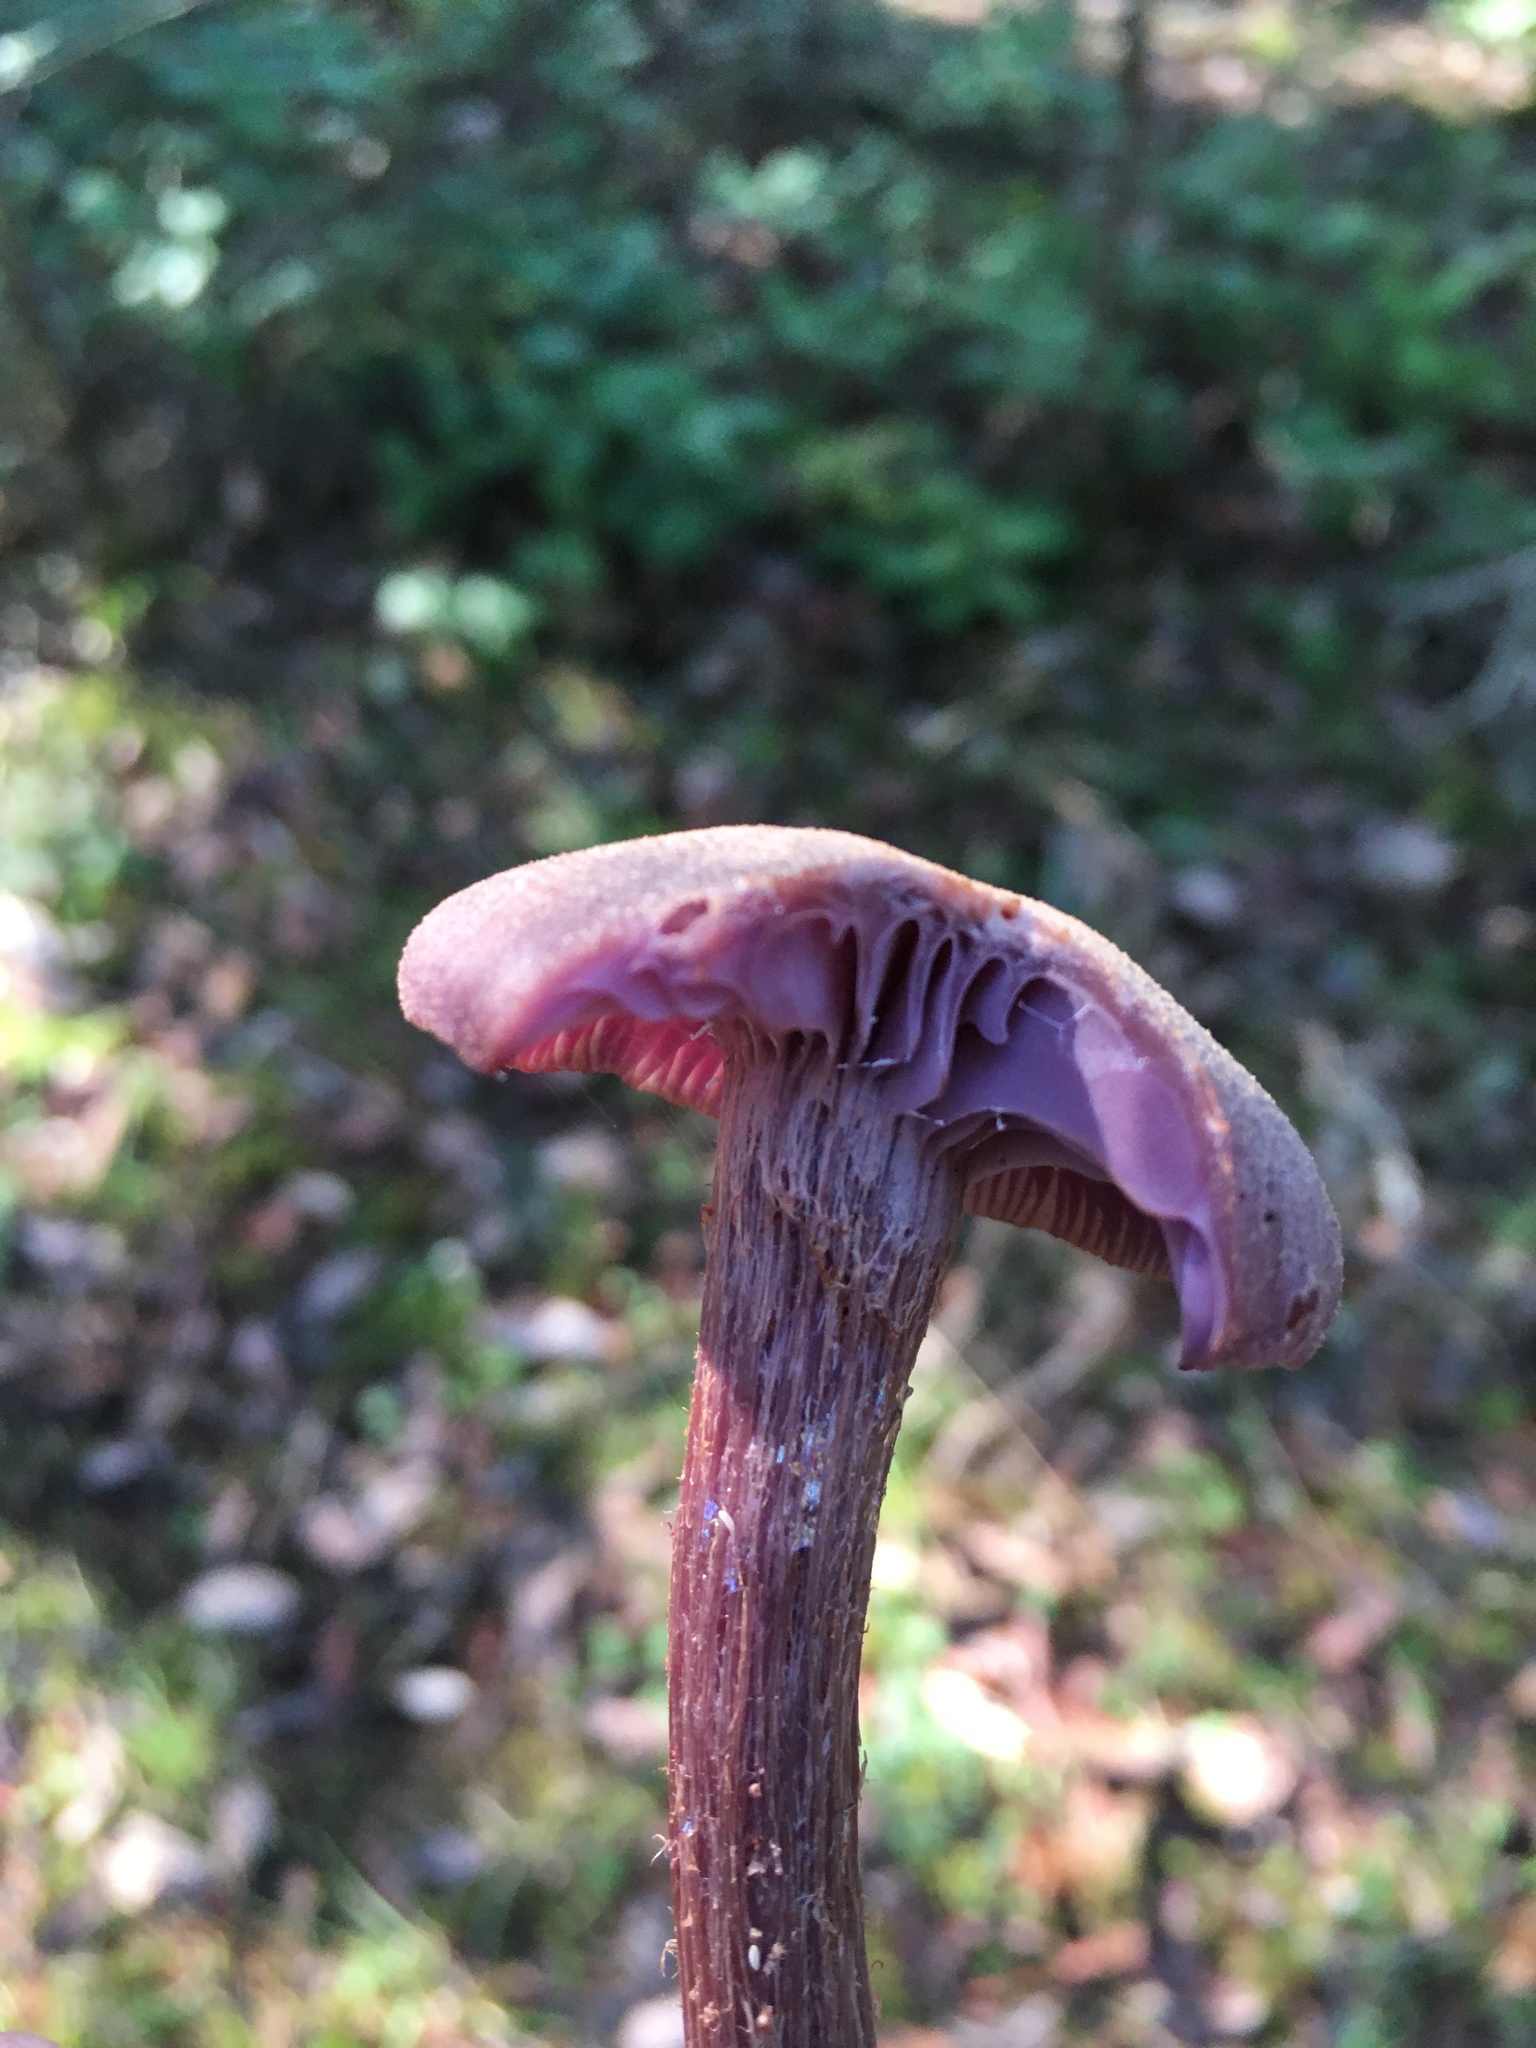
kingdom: Fungi
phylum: Basidiomycota
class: Agaricomycetes
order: Agaricales
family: Hydnangiaceae
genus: Laccaria
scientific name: Laccaria amethysteo-occidentalis
